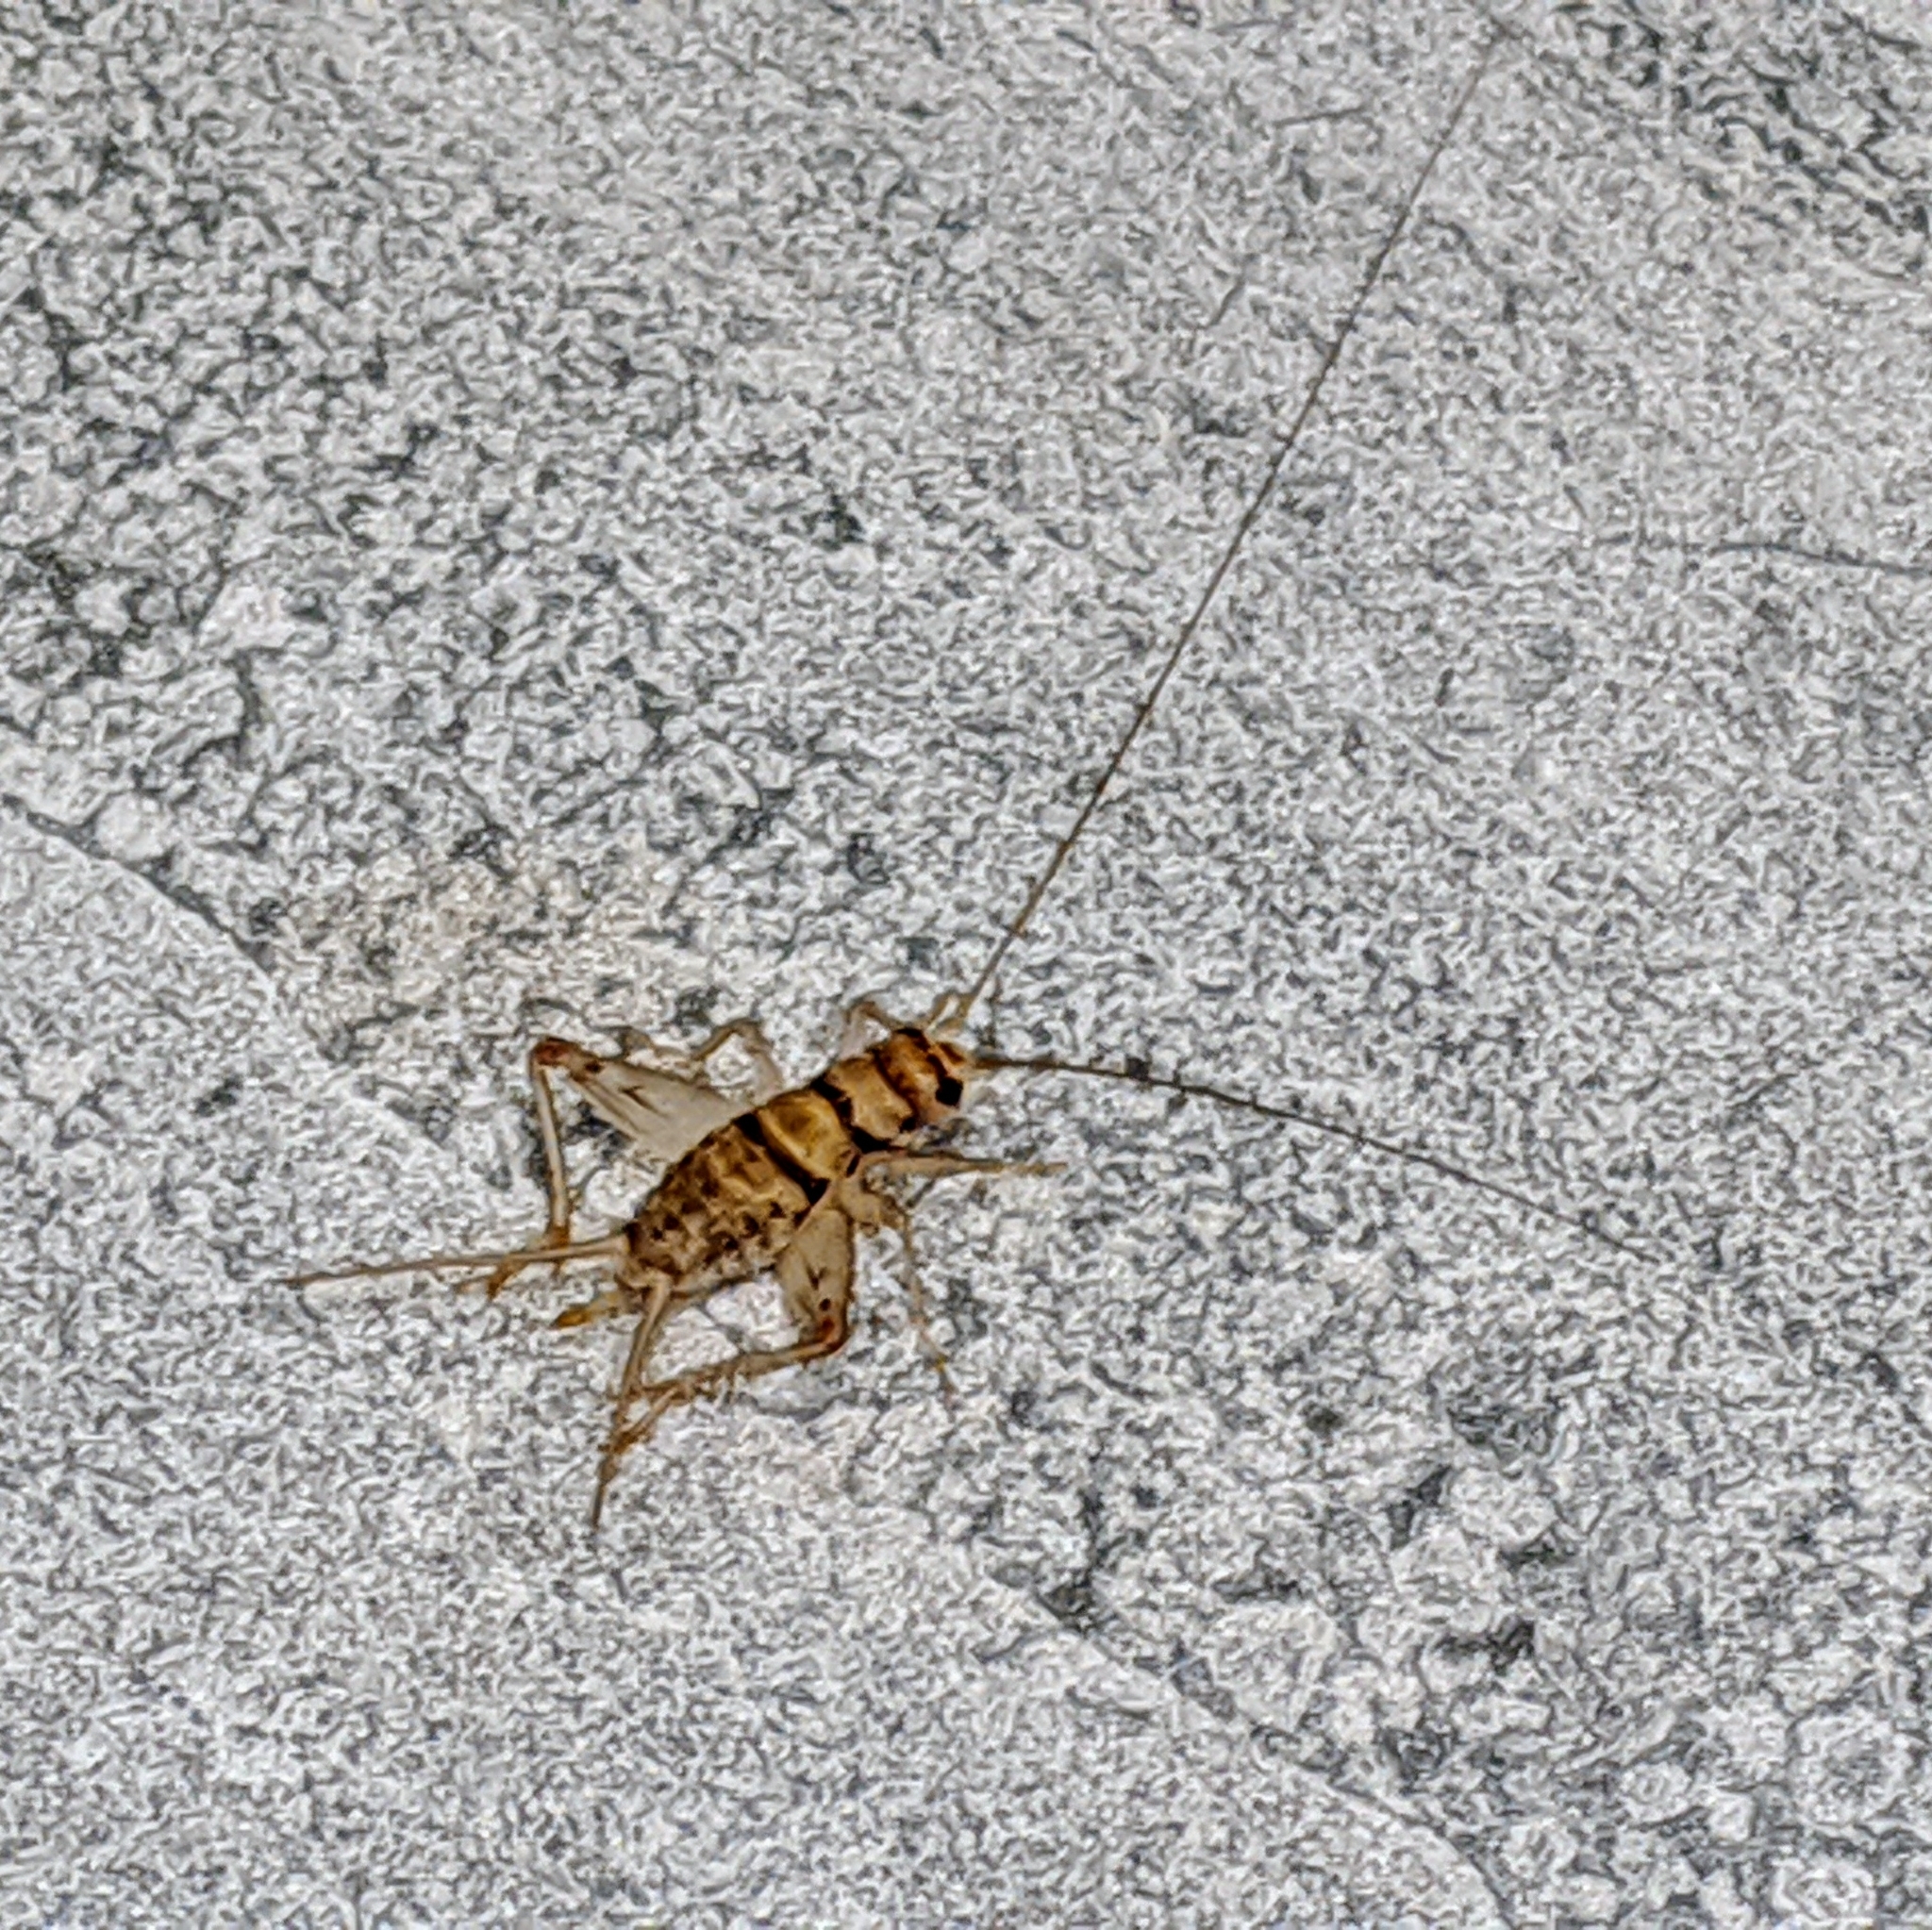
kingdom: Animalia
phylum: Arthropoda
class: Insecta
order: Orthoptera
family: Gryllidae
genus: Gryllodes
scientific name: Gryllodes sigillatus
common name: Tropical house cricket
